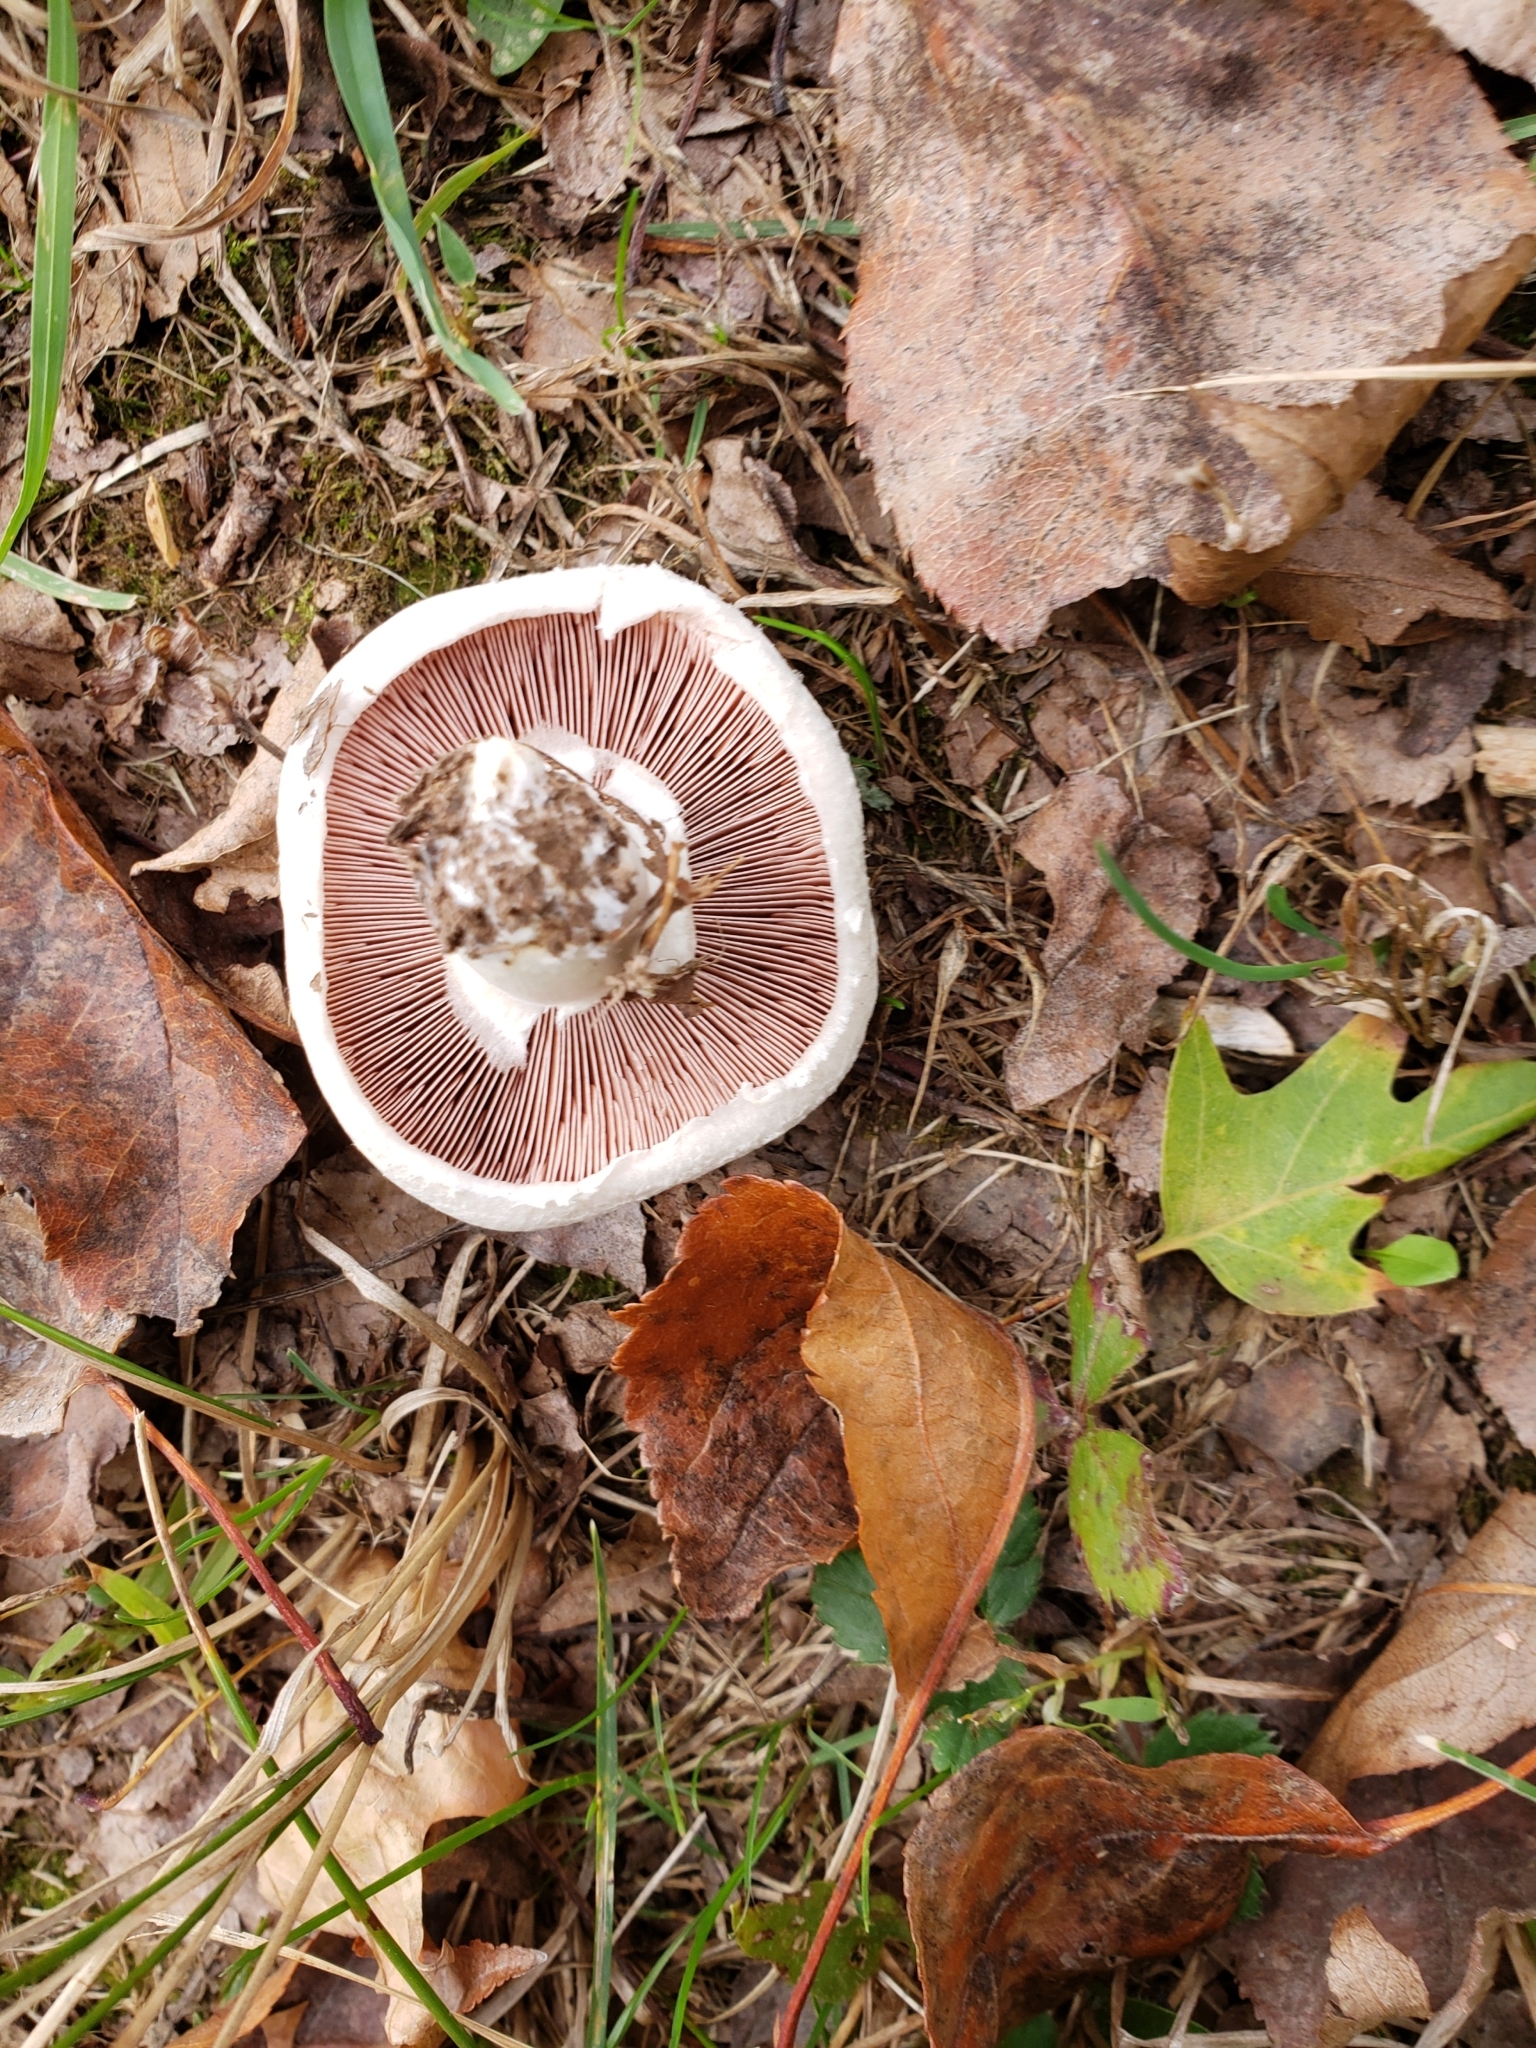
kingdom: Fungi
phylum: Basidiomycota
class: Agaricomycetes
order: Agaricales
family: Agaricaceae
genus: Agaricus
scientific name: Agaricus campestris
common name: Field mushroom
